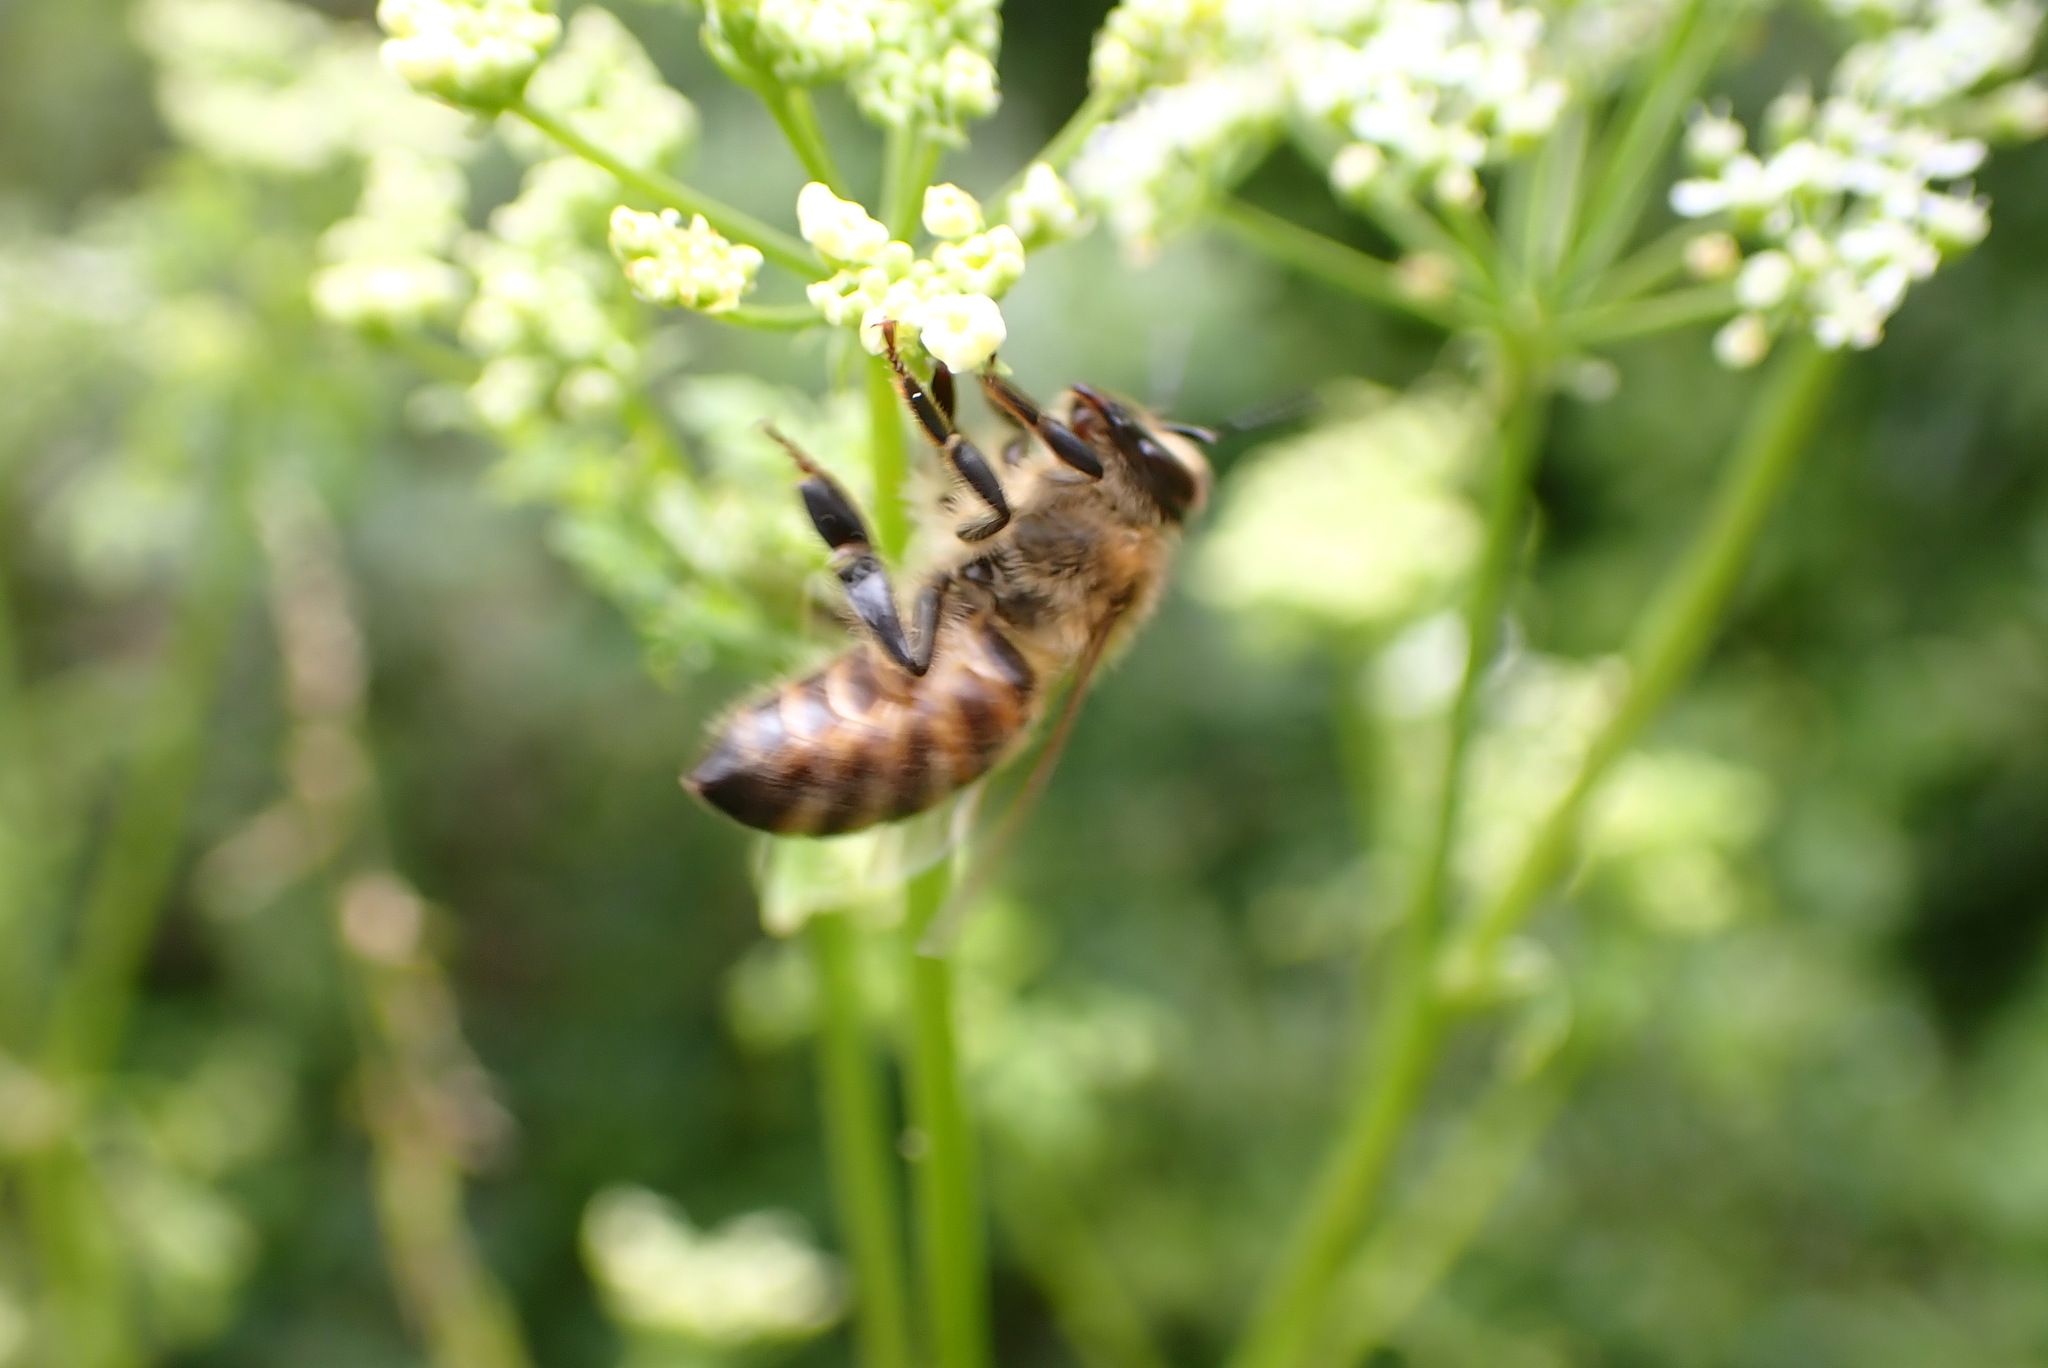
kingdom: Animalia
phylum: Arthropoda
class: Insecta
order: Hymenoptera
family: Apidae
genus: Apis
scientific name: Apis mellifera
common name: Honey bee
